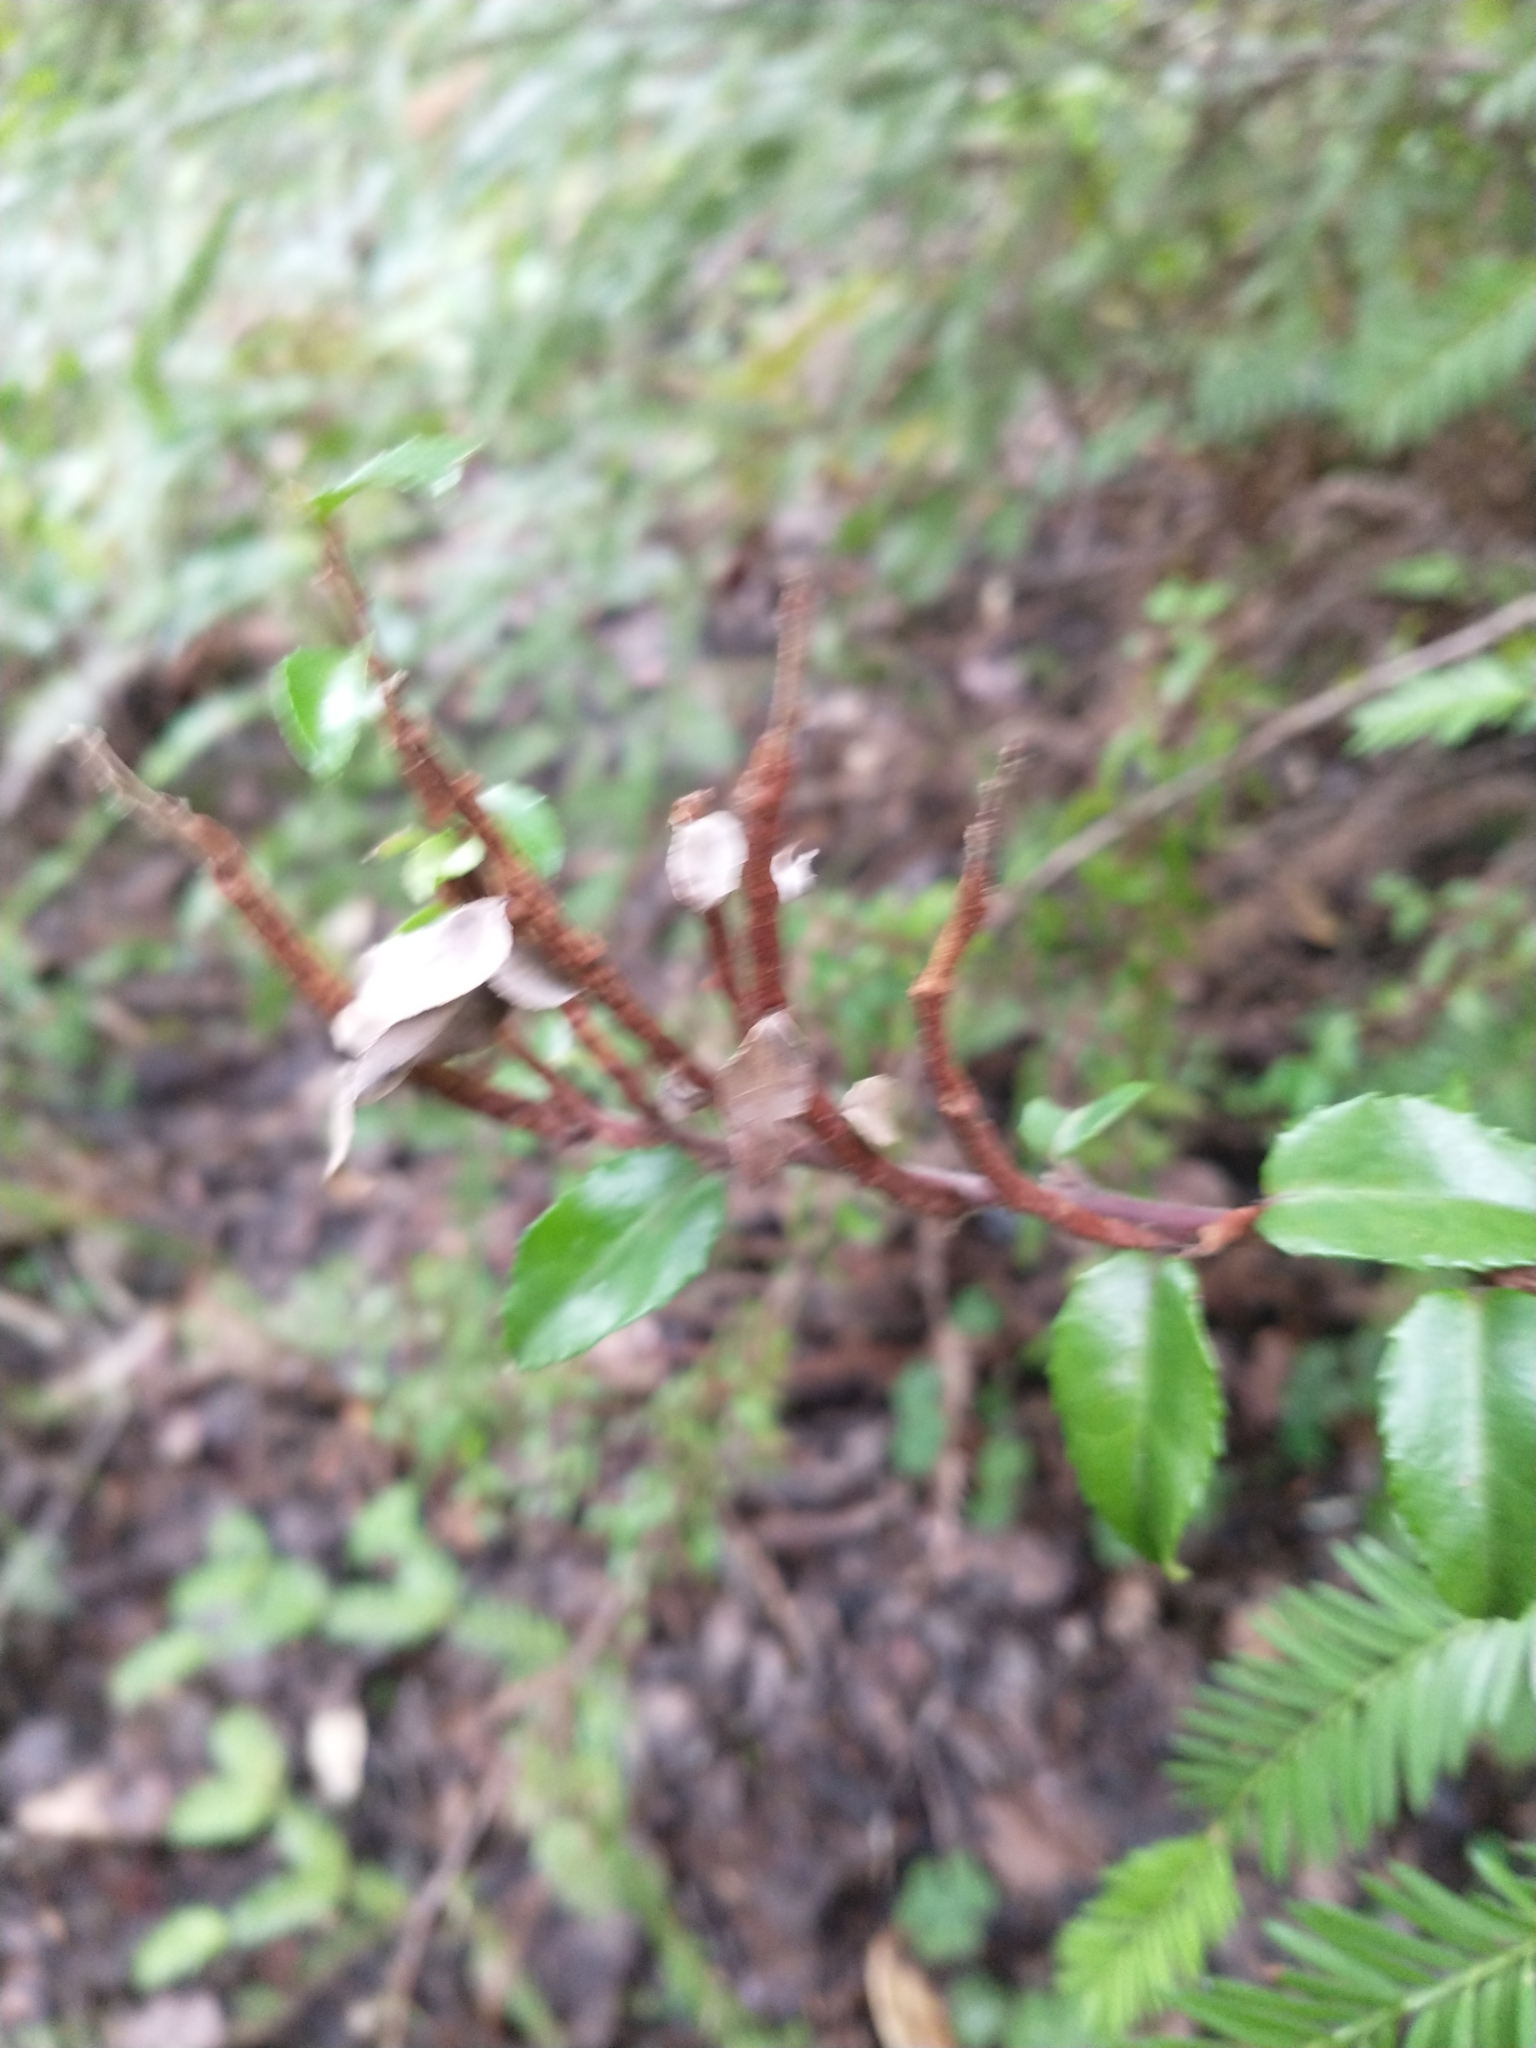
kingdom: Fungi
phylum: Basidiomycota
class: Pucciniomycetes
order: Pucciniales
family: Pucciniastraceae
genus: Calyptospora
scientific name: Calyptospora
